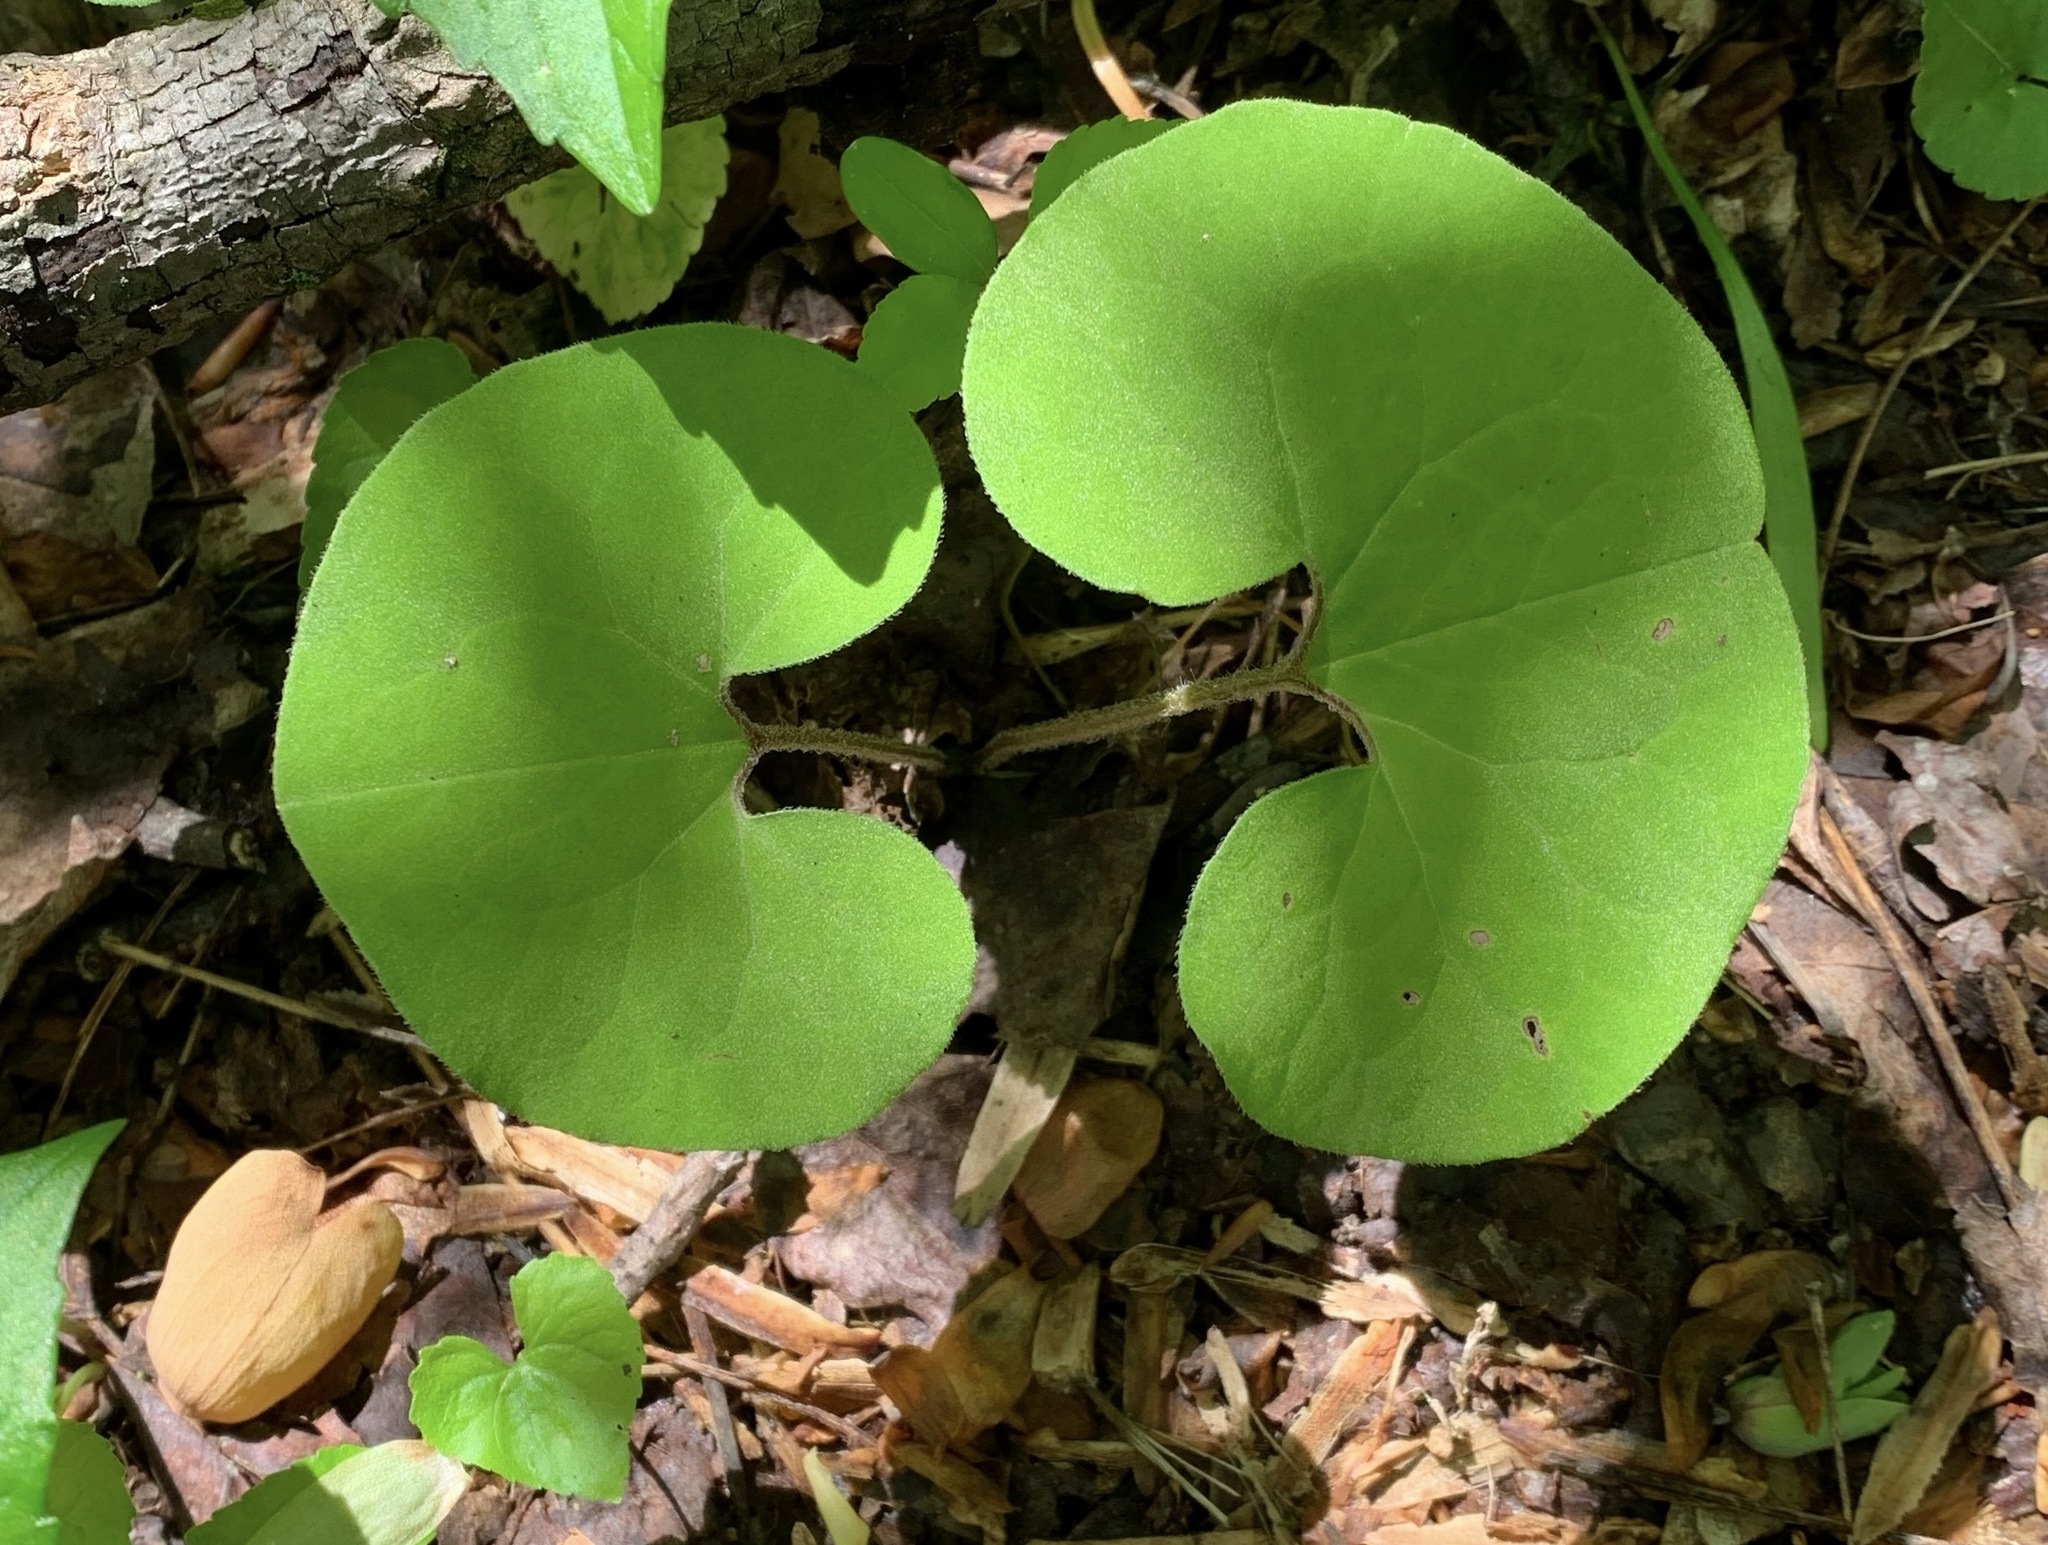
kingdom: Plantae
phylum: Tracheophyta
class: Magnoliopsida
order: Piperales
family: Aristolochiaceae
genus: Asarum
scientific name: Asarum canadense
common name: Wild ginger
